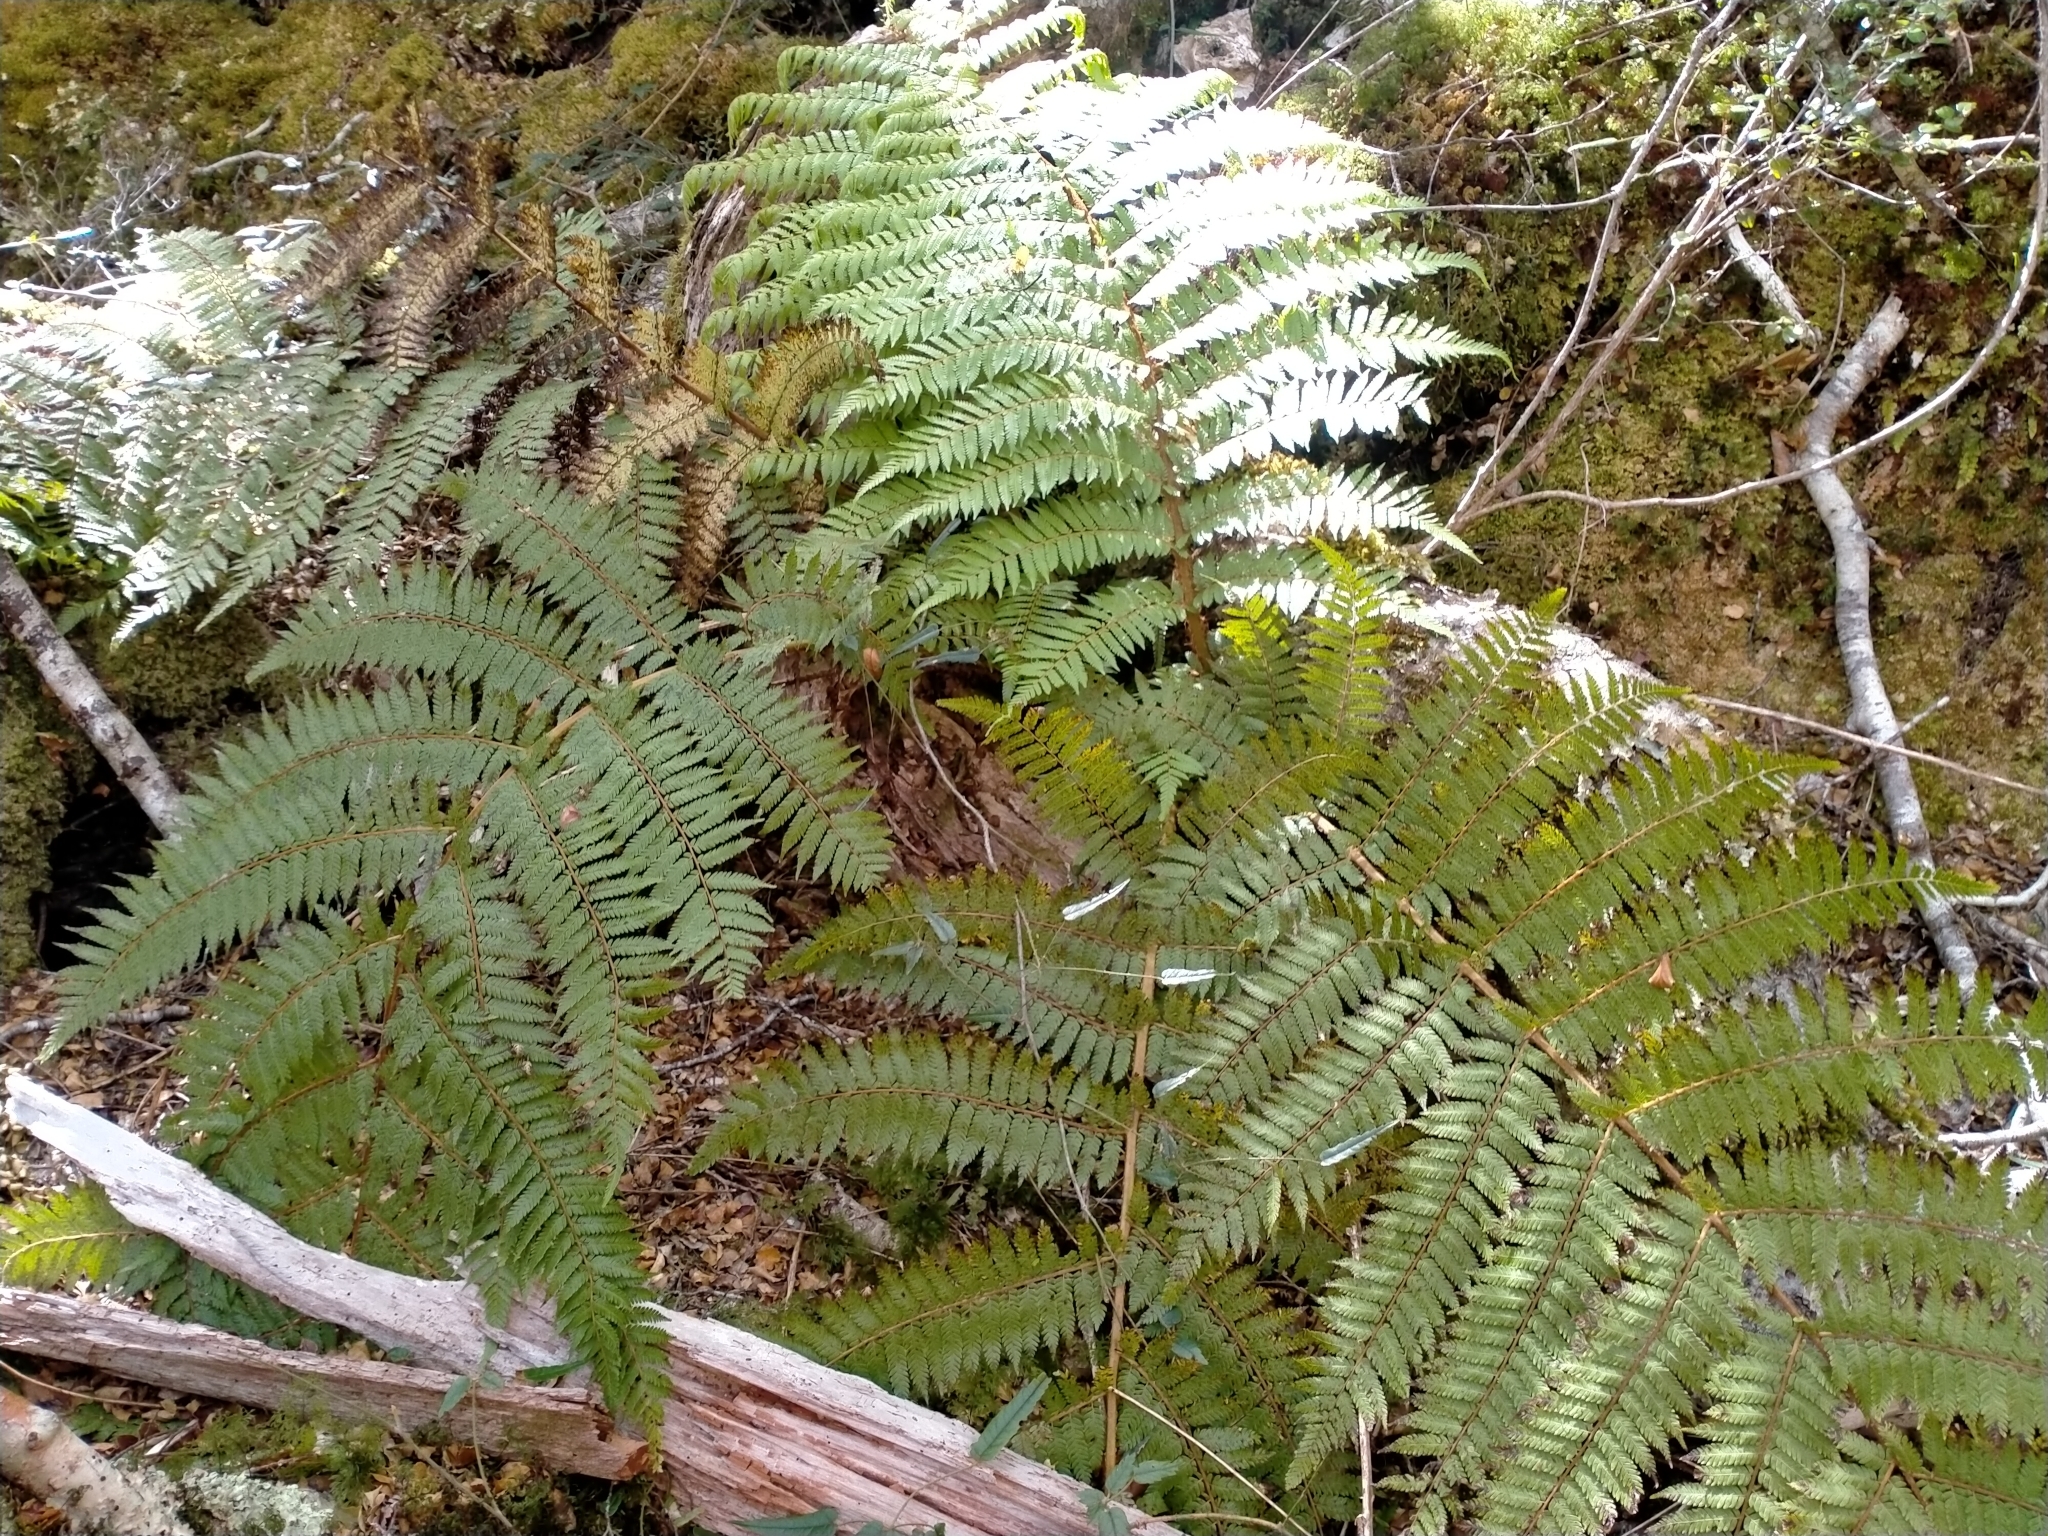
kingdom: Plantae
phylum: Tracheophyta
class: Polypodiopsida
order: Cyatheales
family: Cyatheaceae
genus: Alsophila
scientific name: Alsophila colensoi
